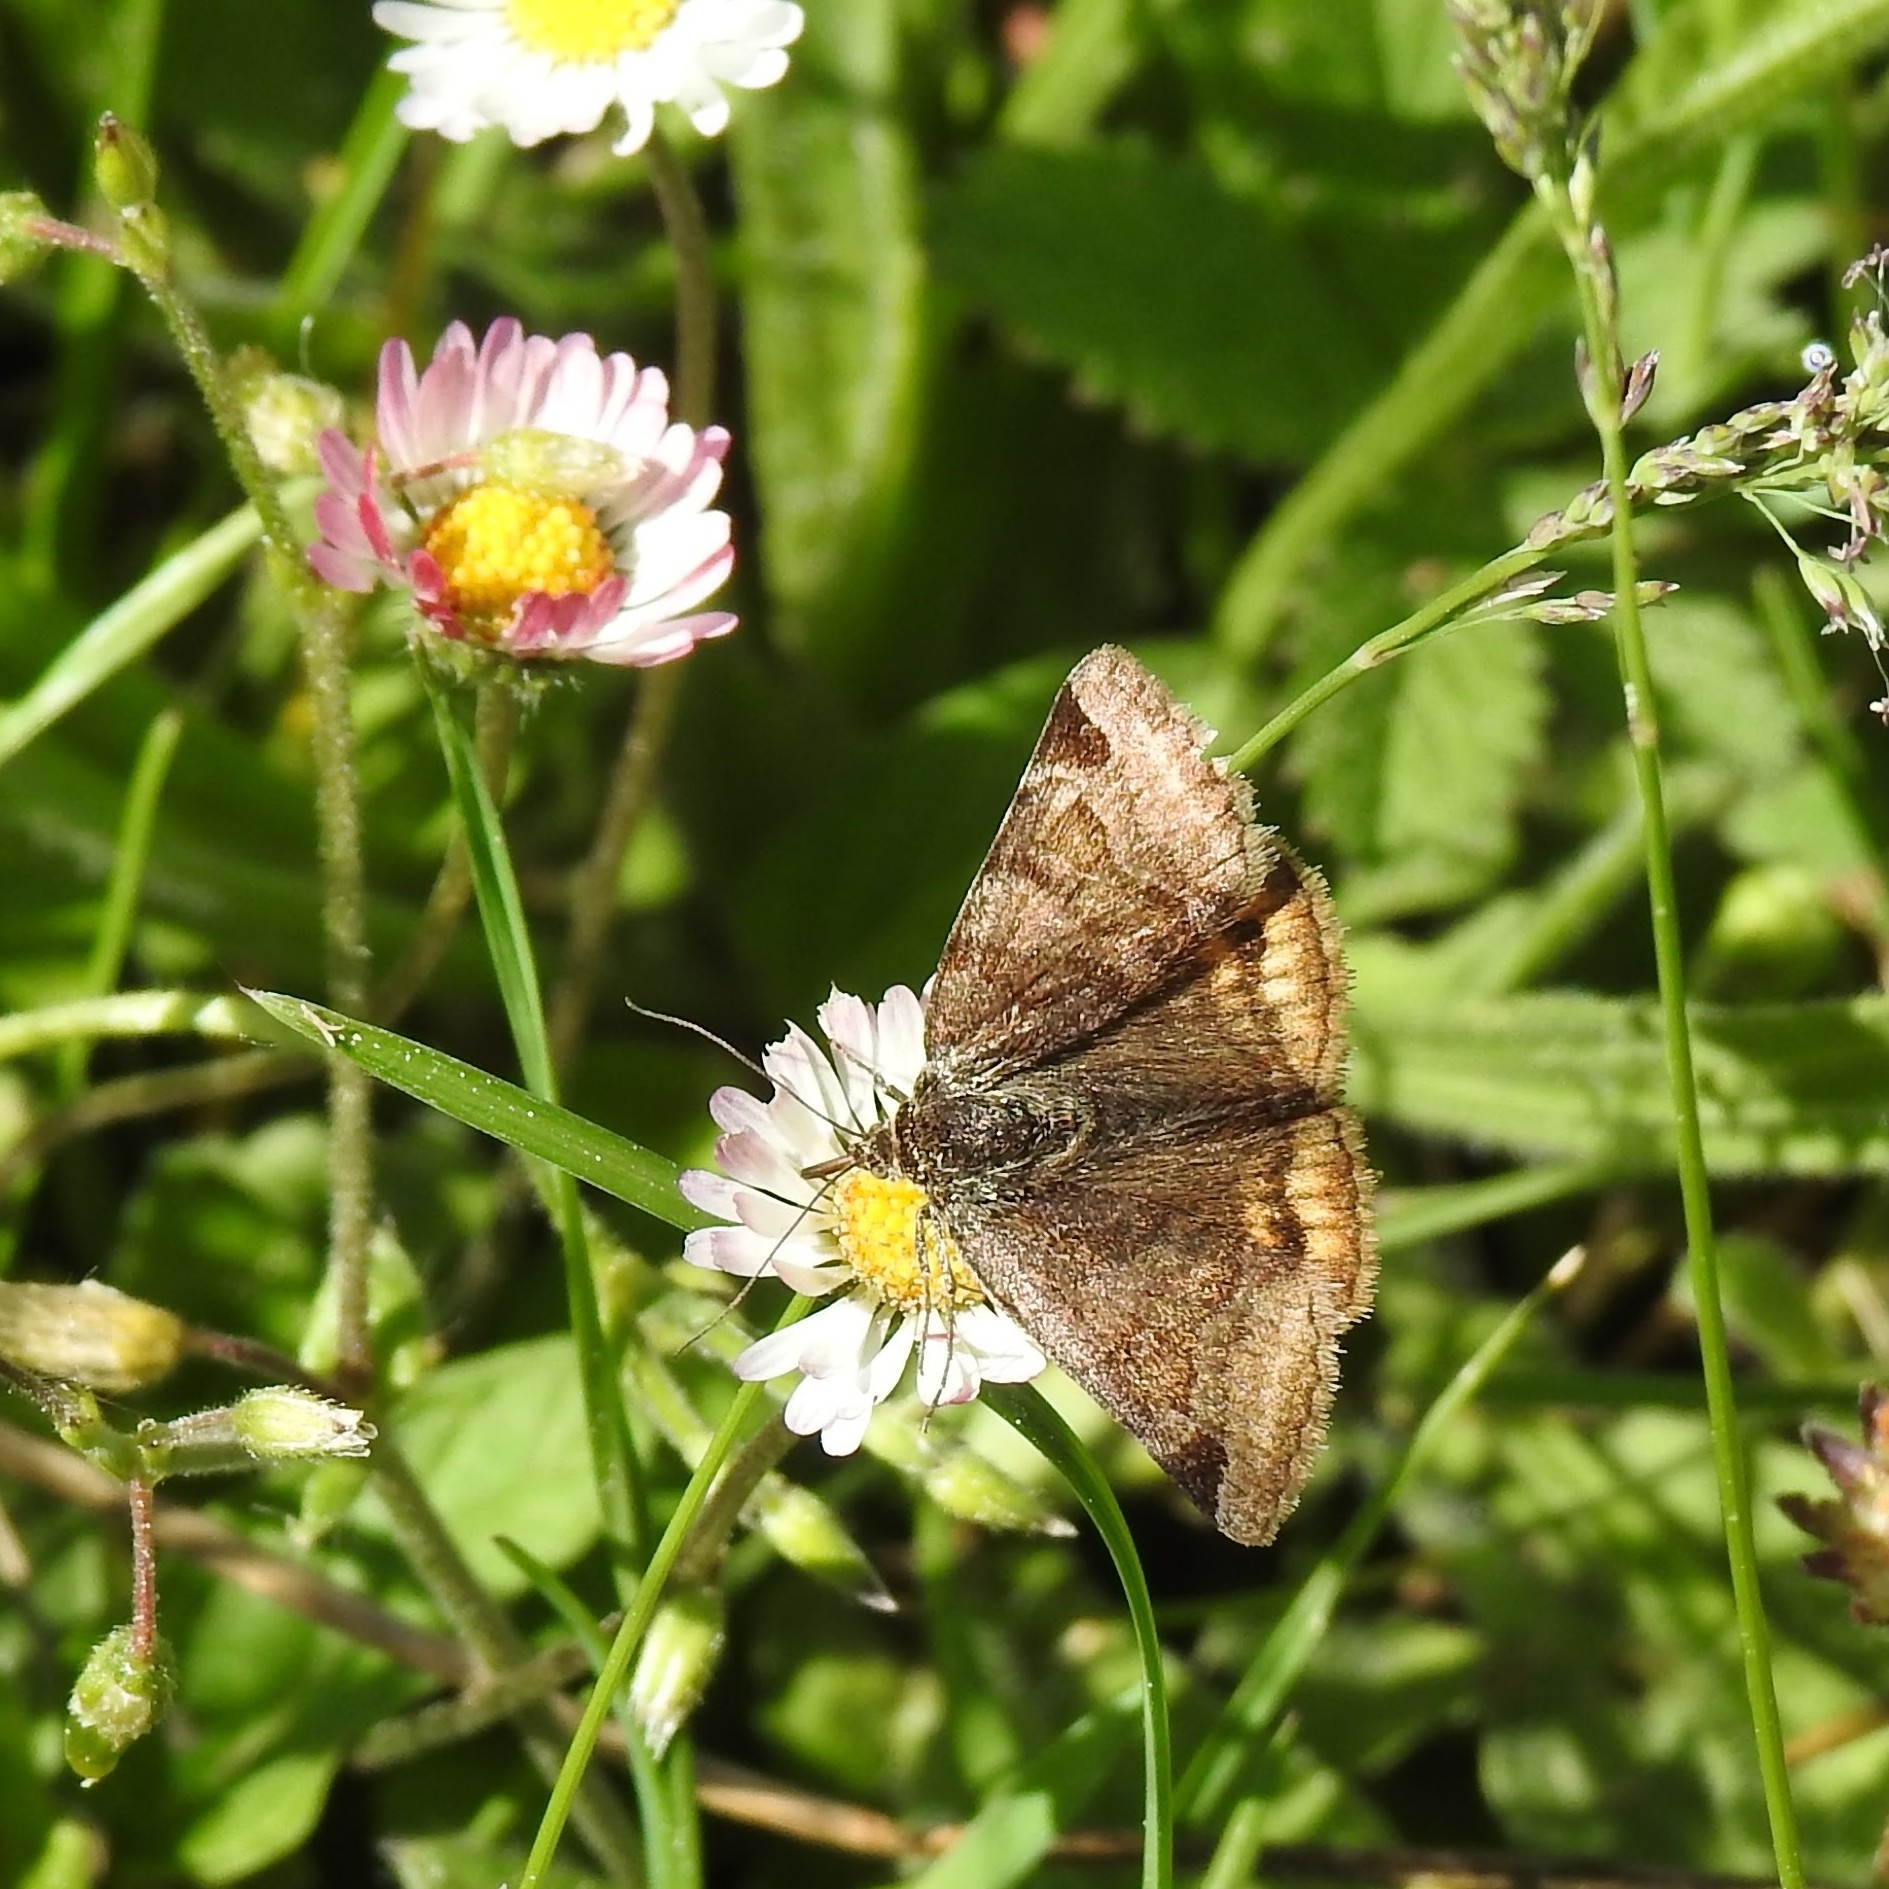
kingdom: Animalia
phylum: Arthropoda
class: Insecta
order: Lepidoptera
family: Erebidae
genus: Euclidia
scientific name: Euclidia glyphica
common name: Burnet companion
